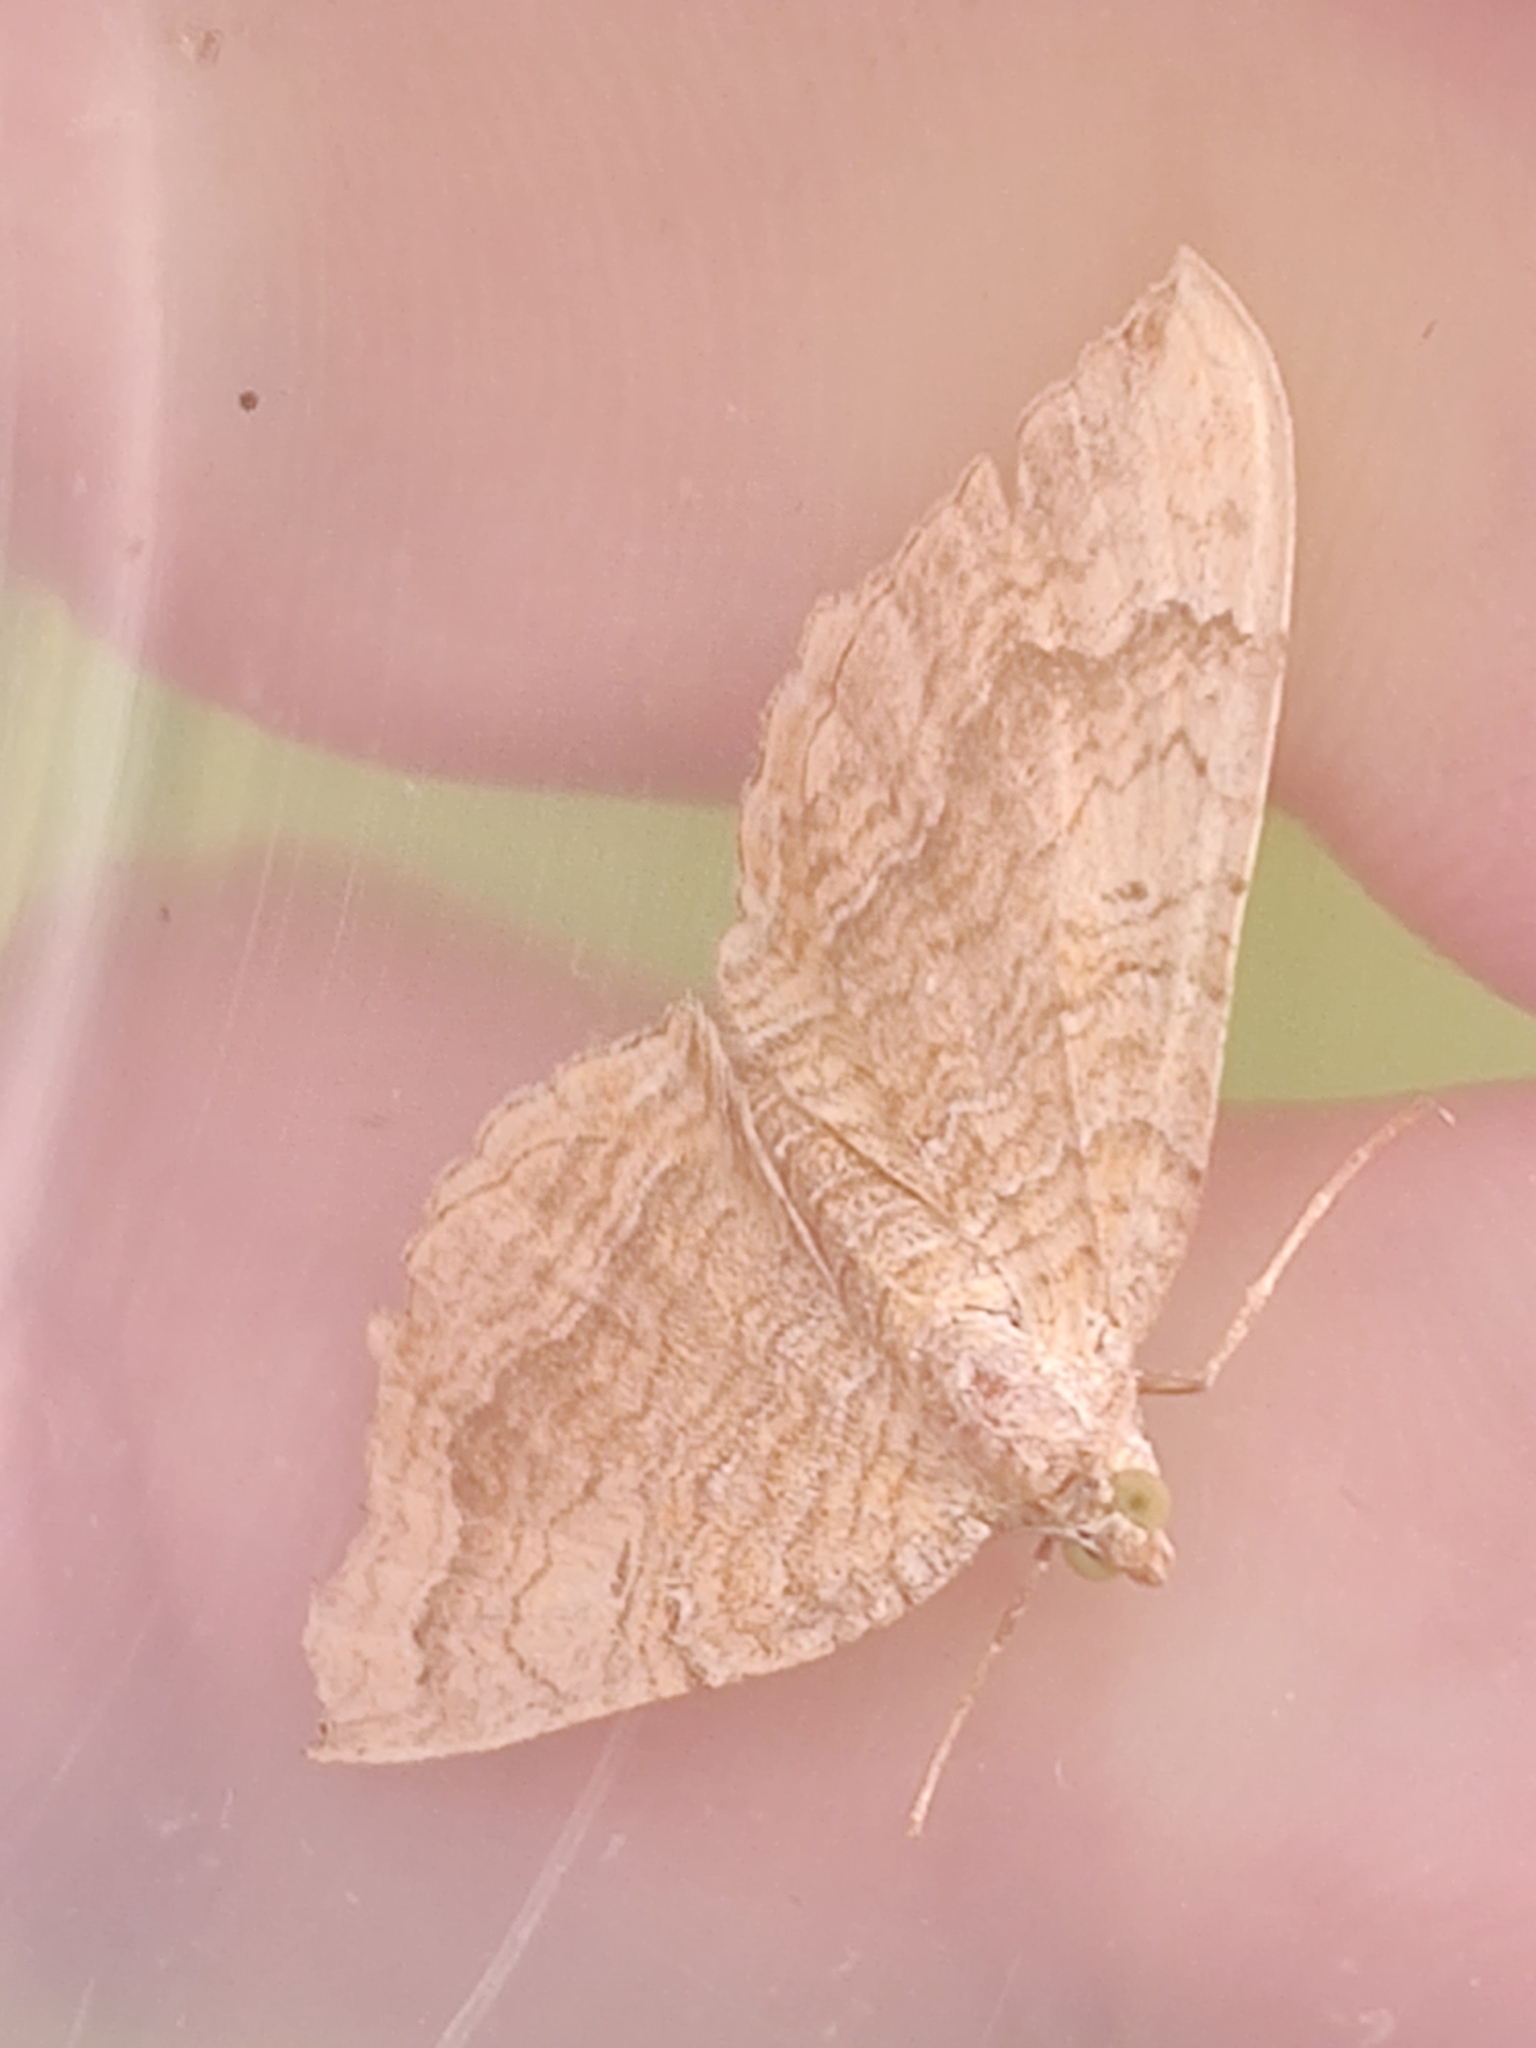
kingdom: Animalia
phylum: Arthropoda
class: Insecta
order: Lepidoptera
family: Geometridae
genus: Camptogramma
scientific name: Camptogramma bilineata
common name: Yellow shell
